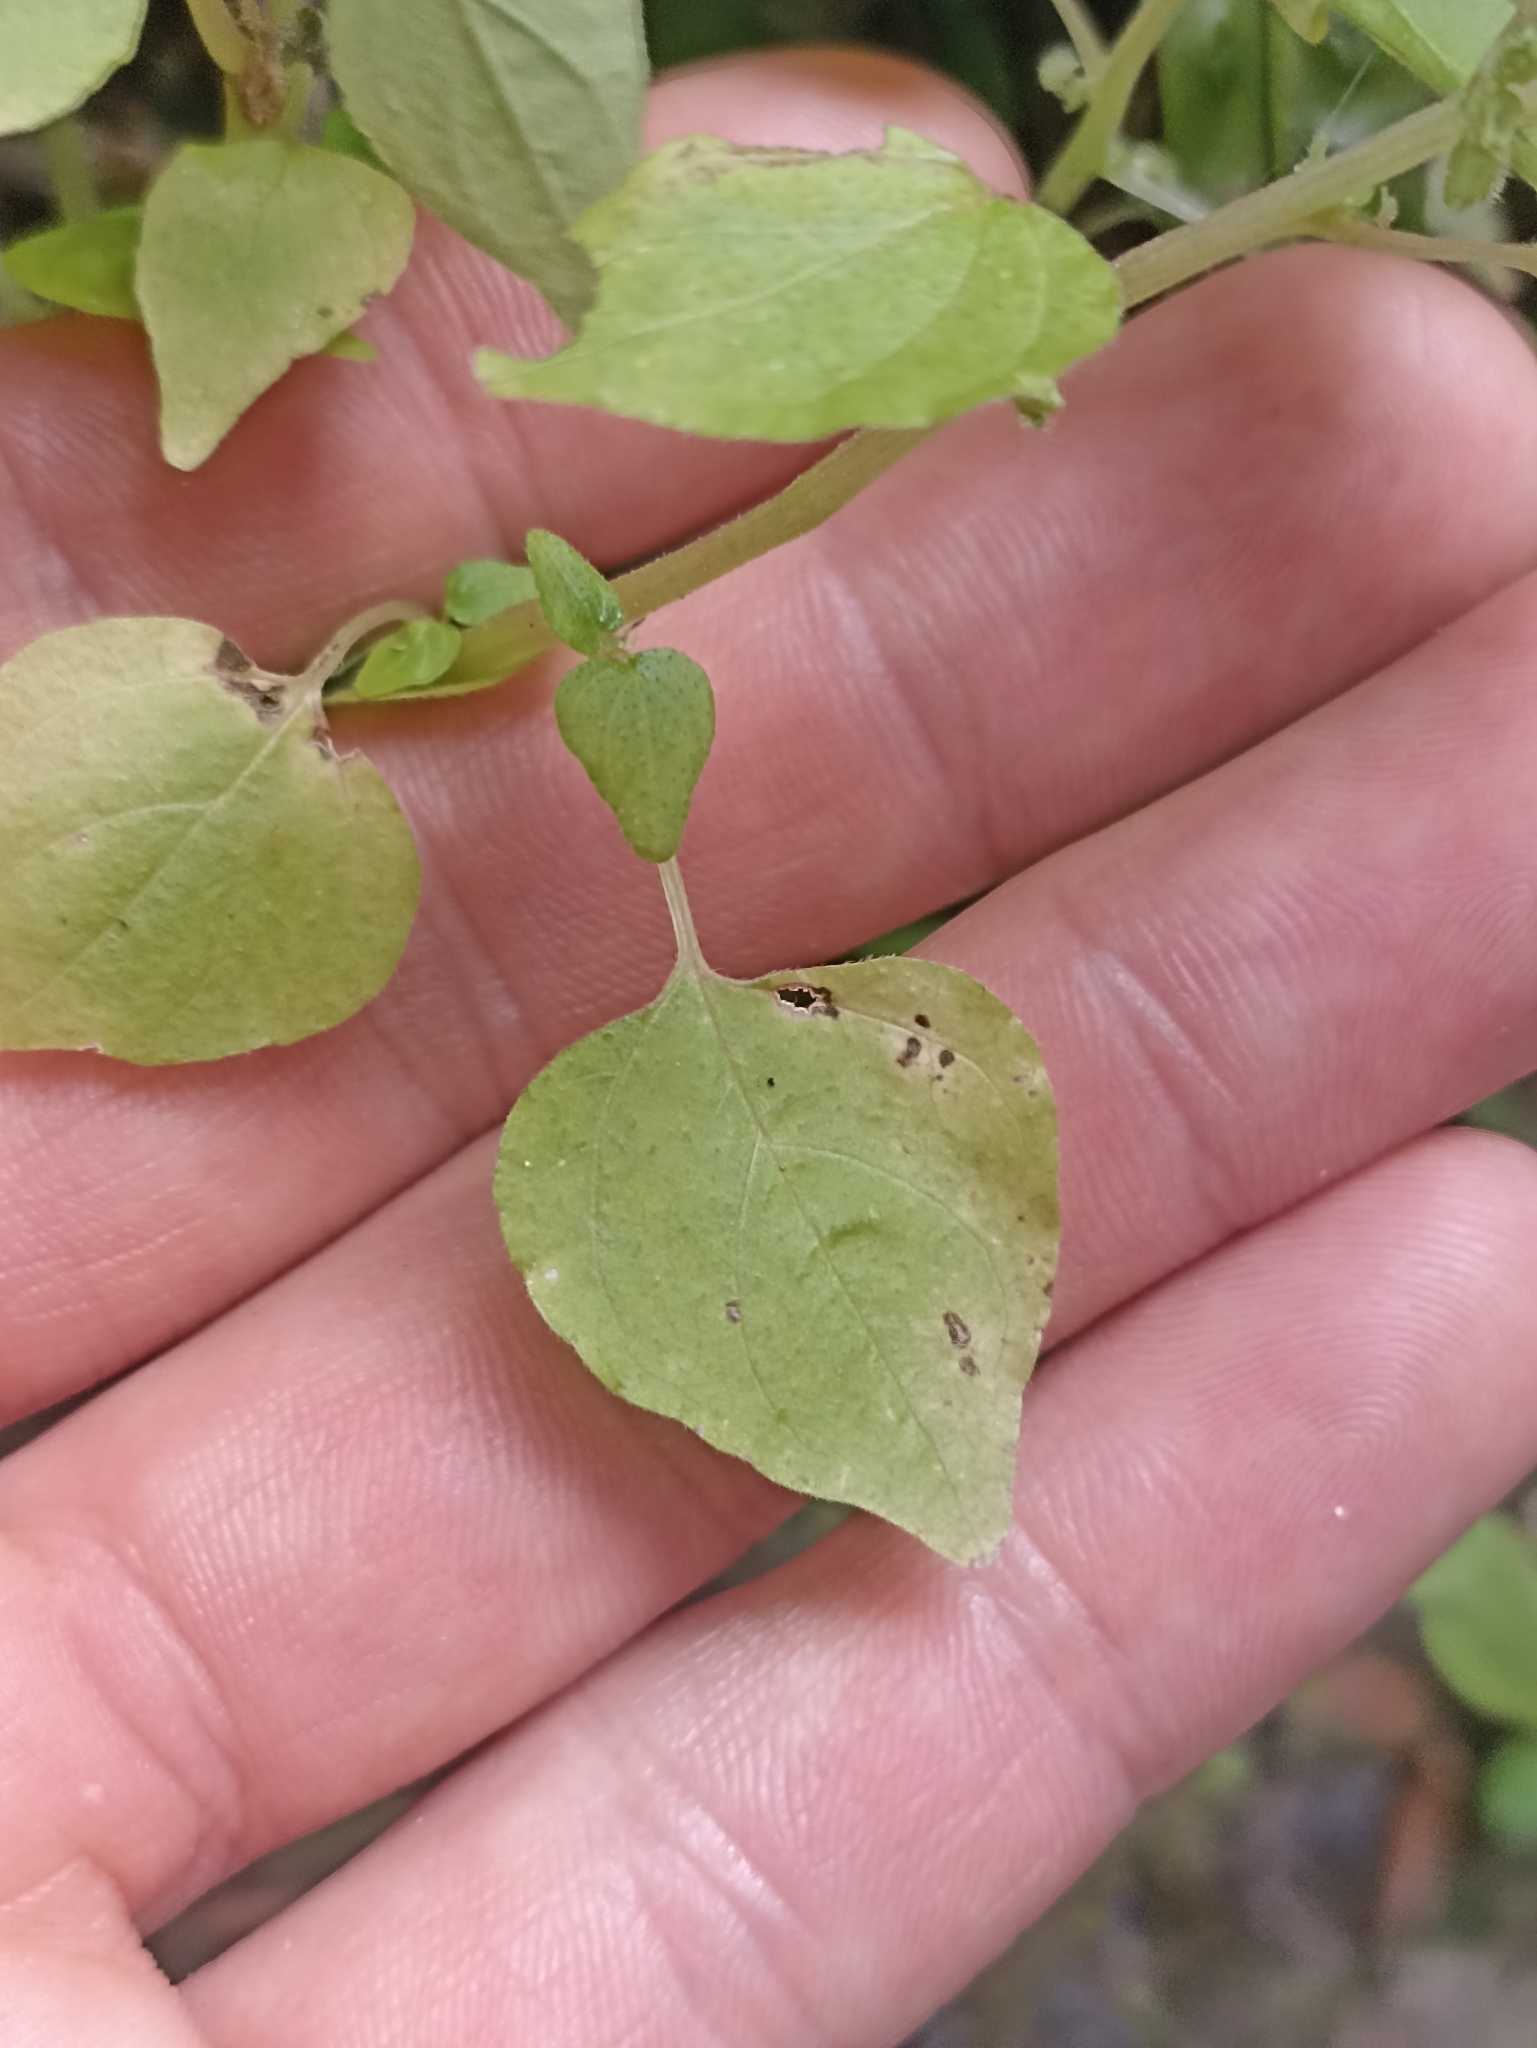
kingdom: Plantae
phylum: Tracheophyta
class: Magnoliopsida
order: Rosales
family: Urticaceae
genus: Parietaria
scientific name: Parietaria debilis
